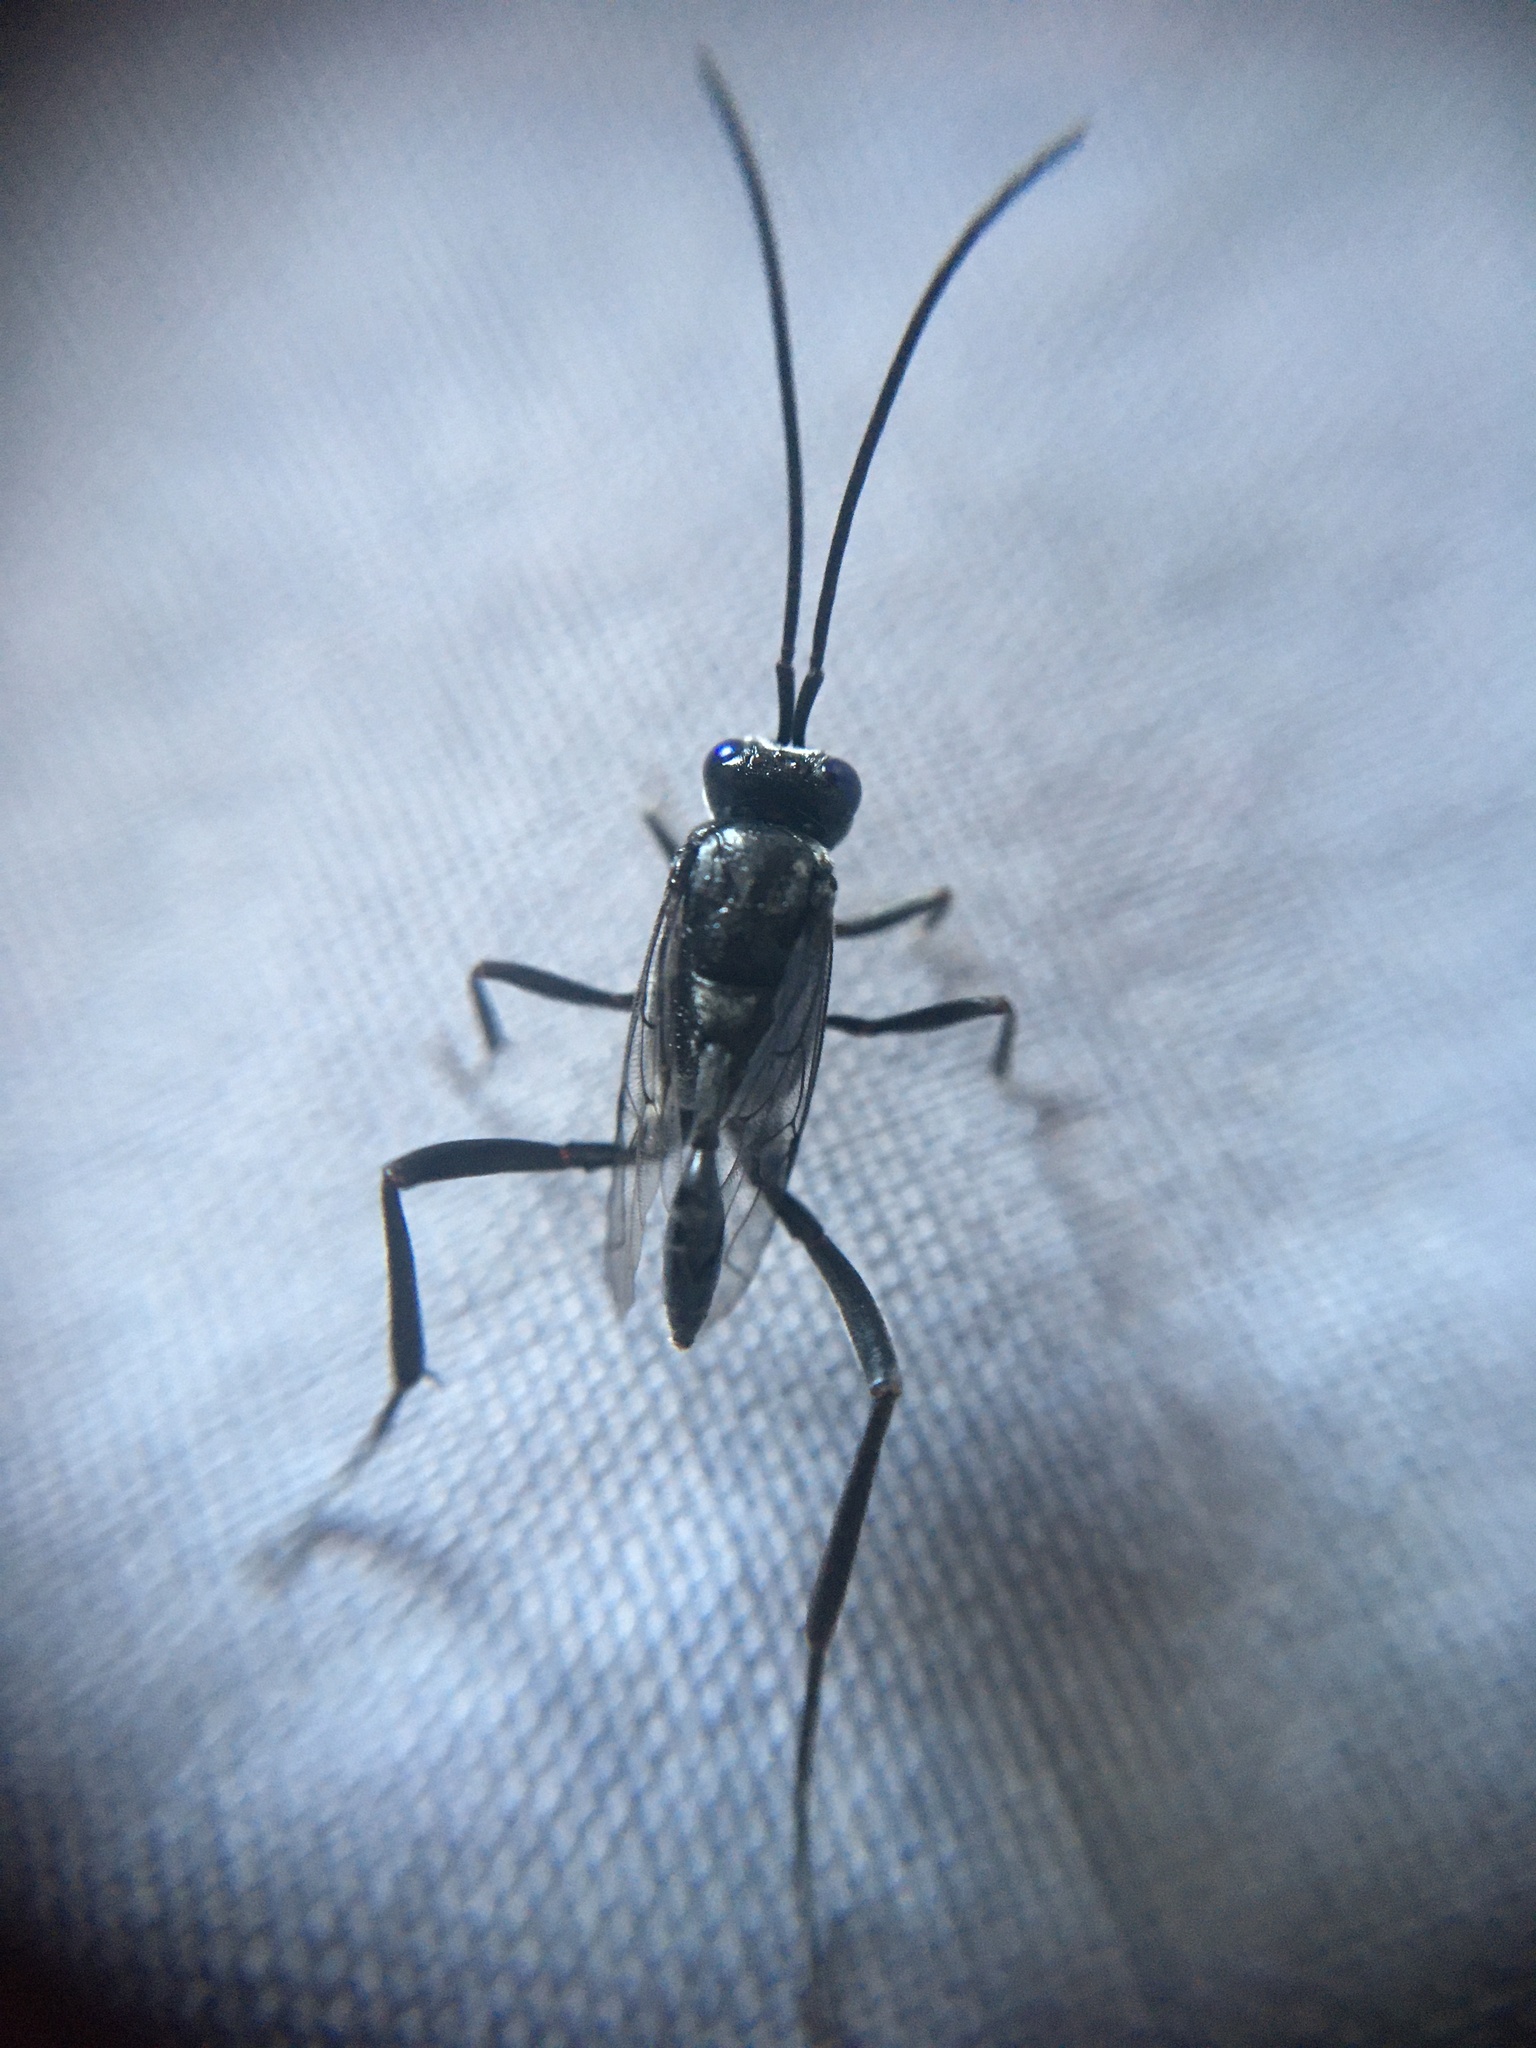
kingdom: Animalia
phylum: Arthropoda
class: Insecta
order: Hymenoptera
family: Evaniidae
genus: Evania
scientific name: Evania appendigaster
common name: Ensign wasp
